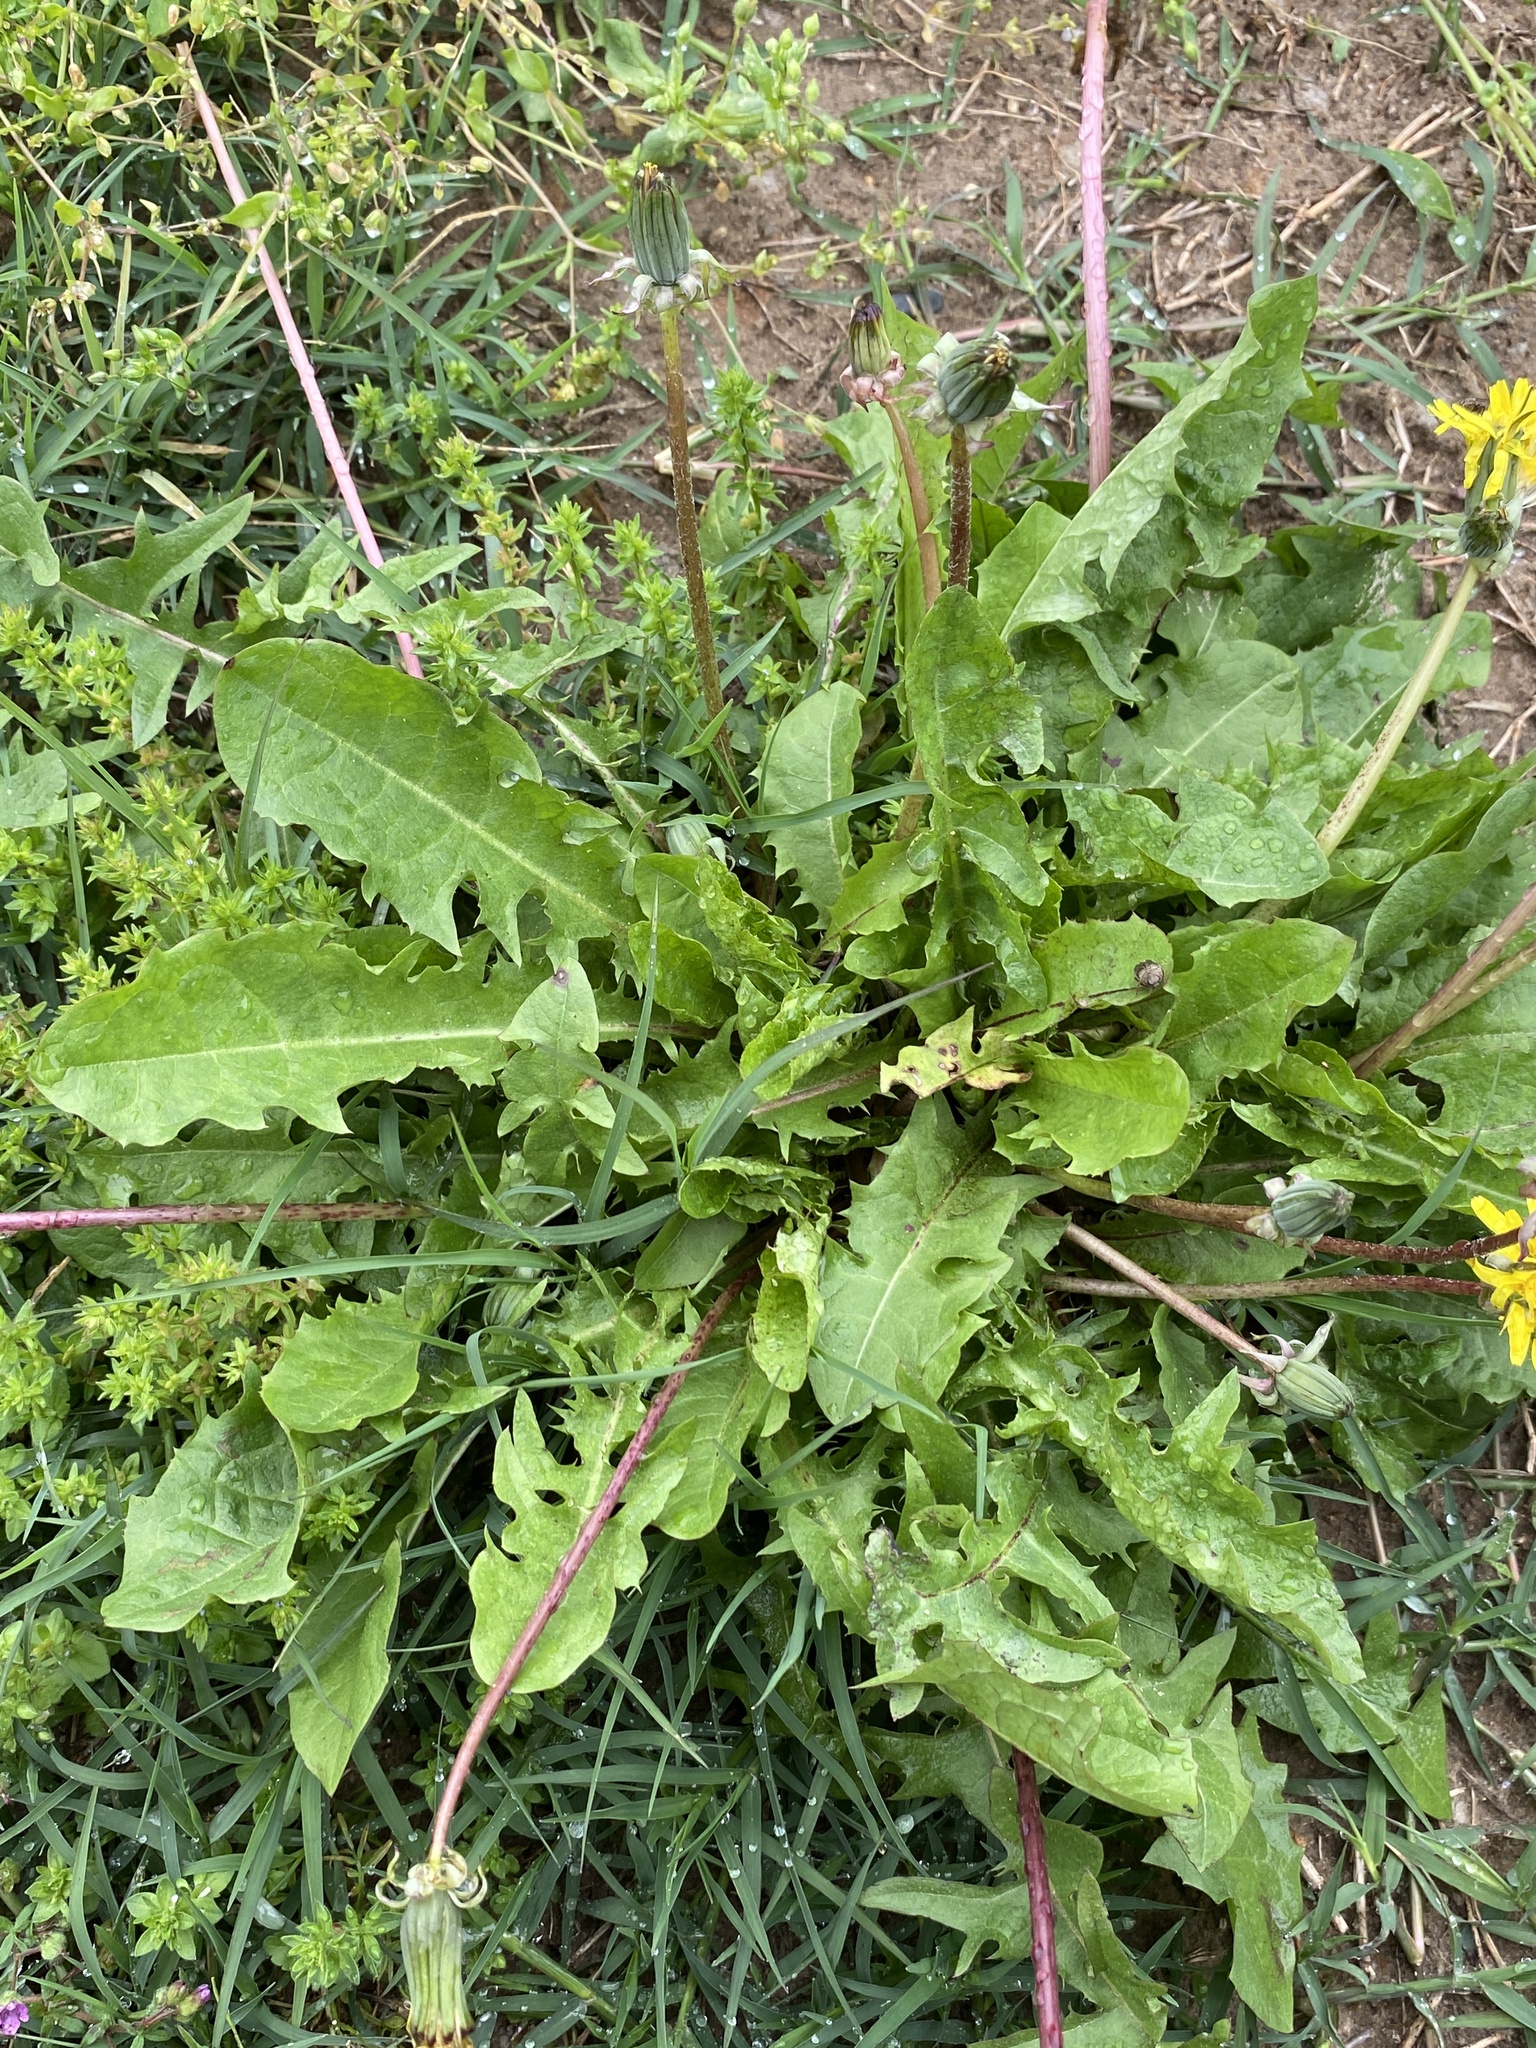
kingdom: Plantae
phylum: Tracheophyta
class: Magnoliopsida
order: Asterales
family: Asteraceae
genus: Taraxacum
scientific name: Taraxacum
